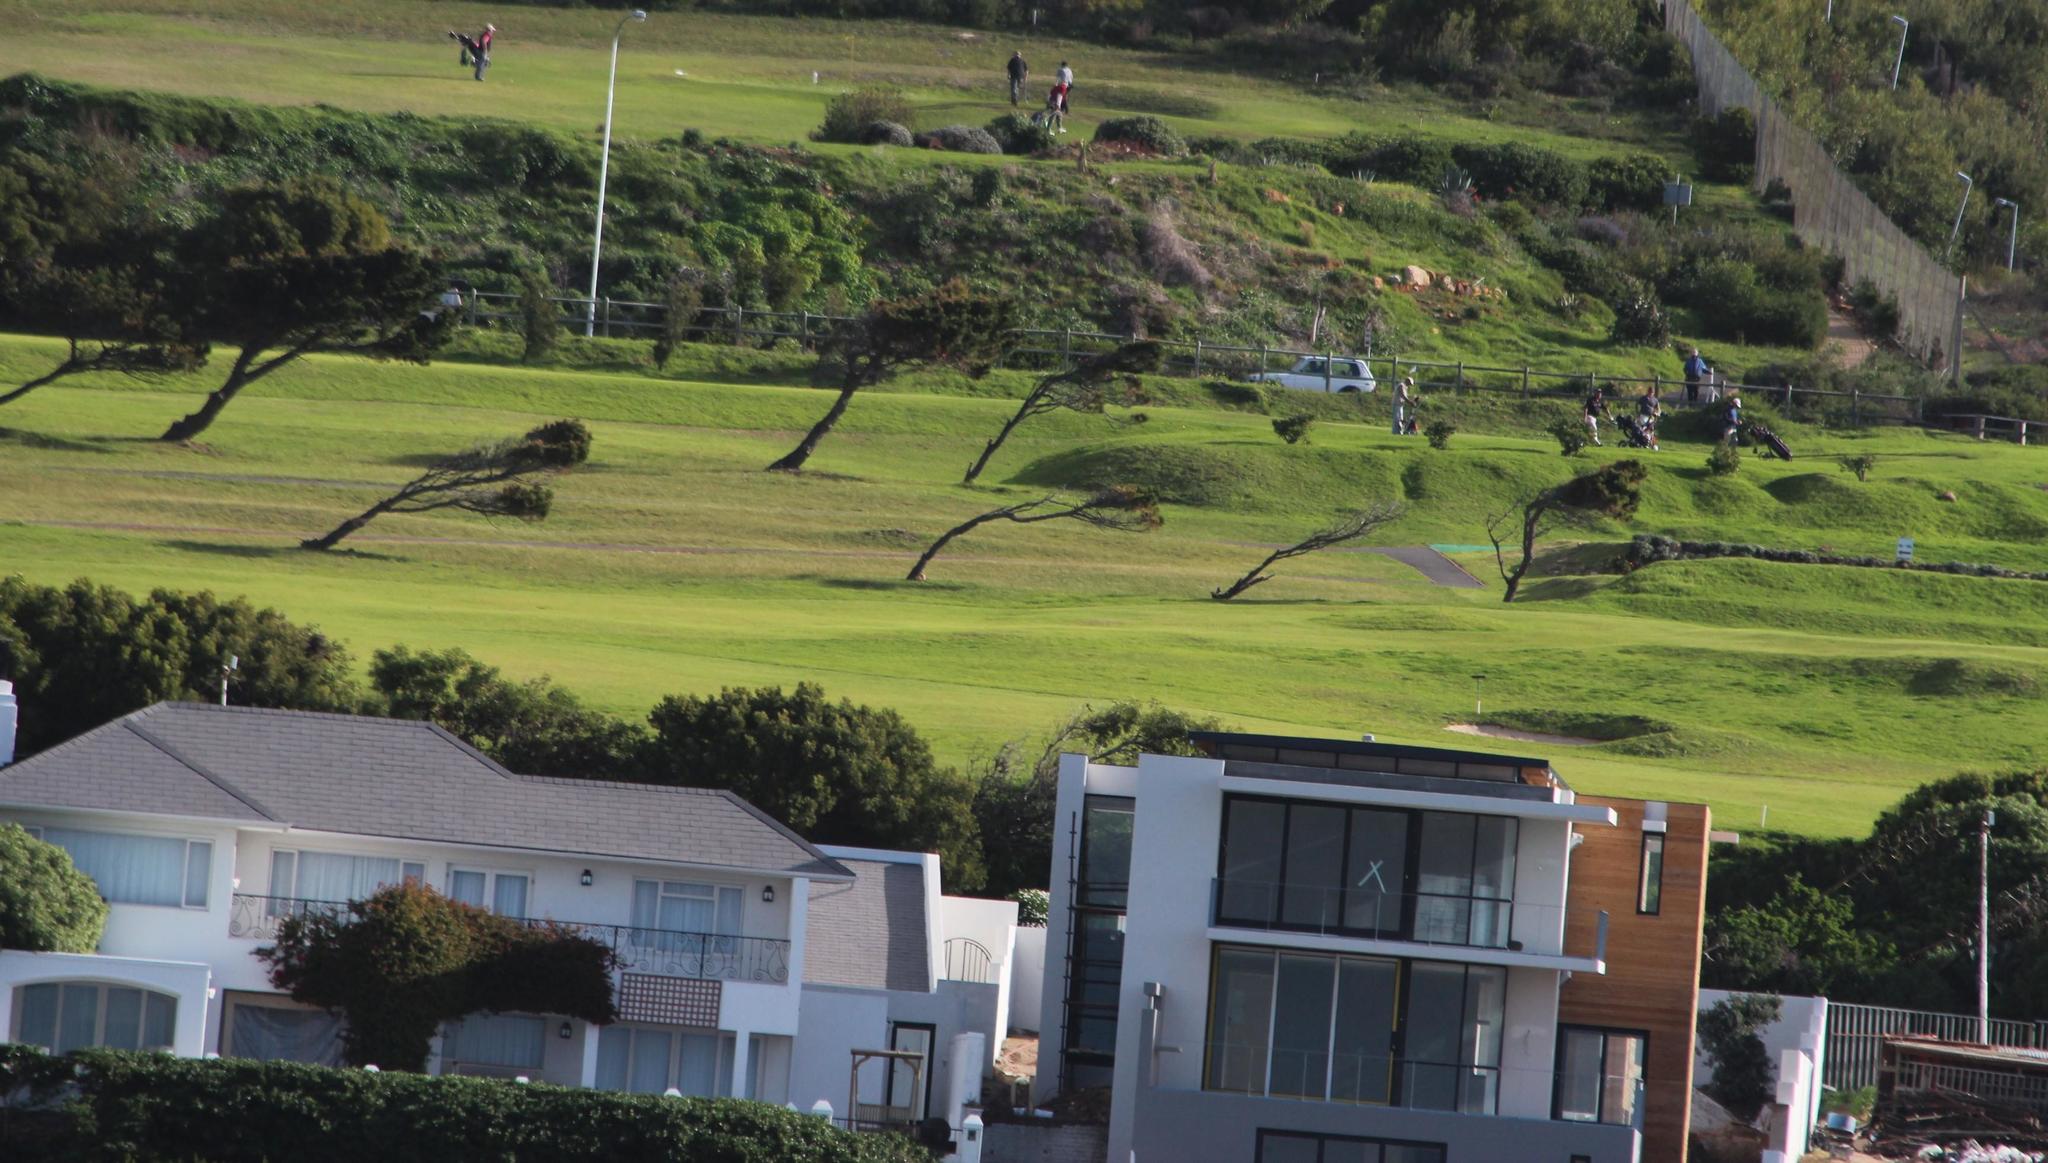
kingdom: Plantae
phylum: Tracheophyta
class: Pinopsida
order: Pinales
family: Pinaceae
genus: Pinus
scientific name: Pinus halepensis
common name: Aleppo pine
